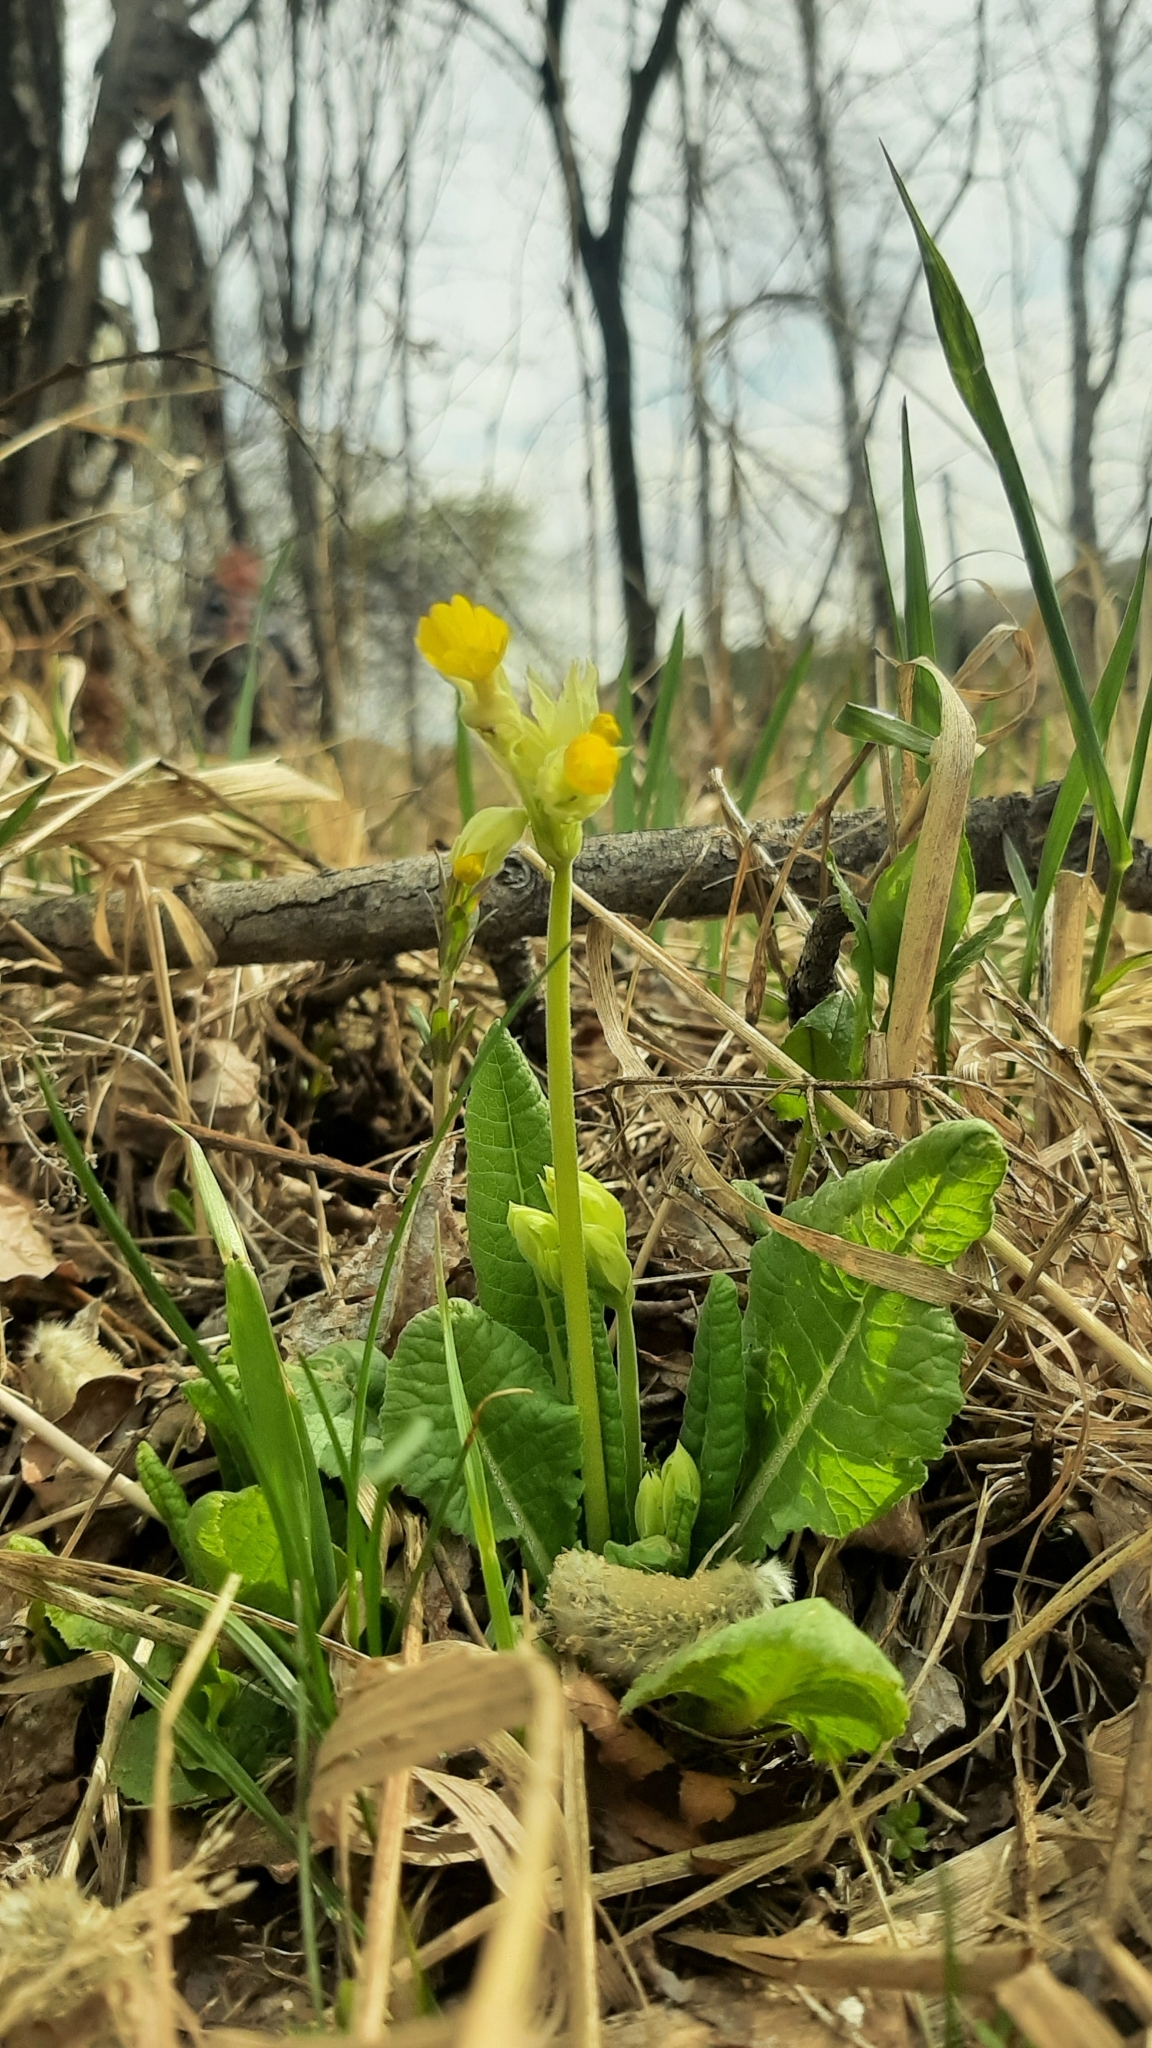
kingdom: Plantae
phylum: Tracheophyta
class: Magnoliopsida
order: Ericales
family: Primulaceae
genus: Primula
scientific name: Primula veris
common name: Cowslip
